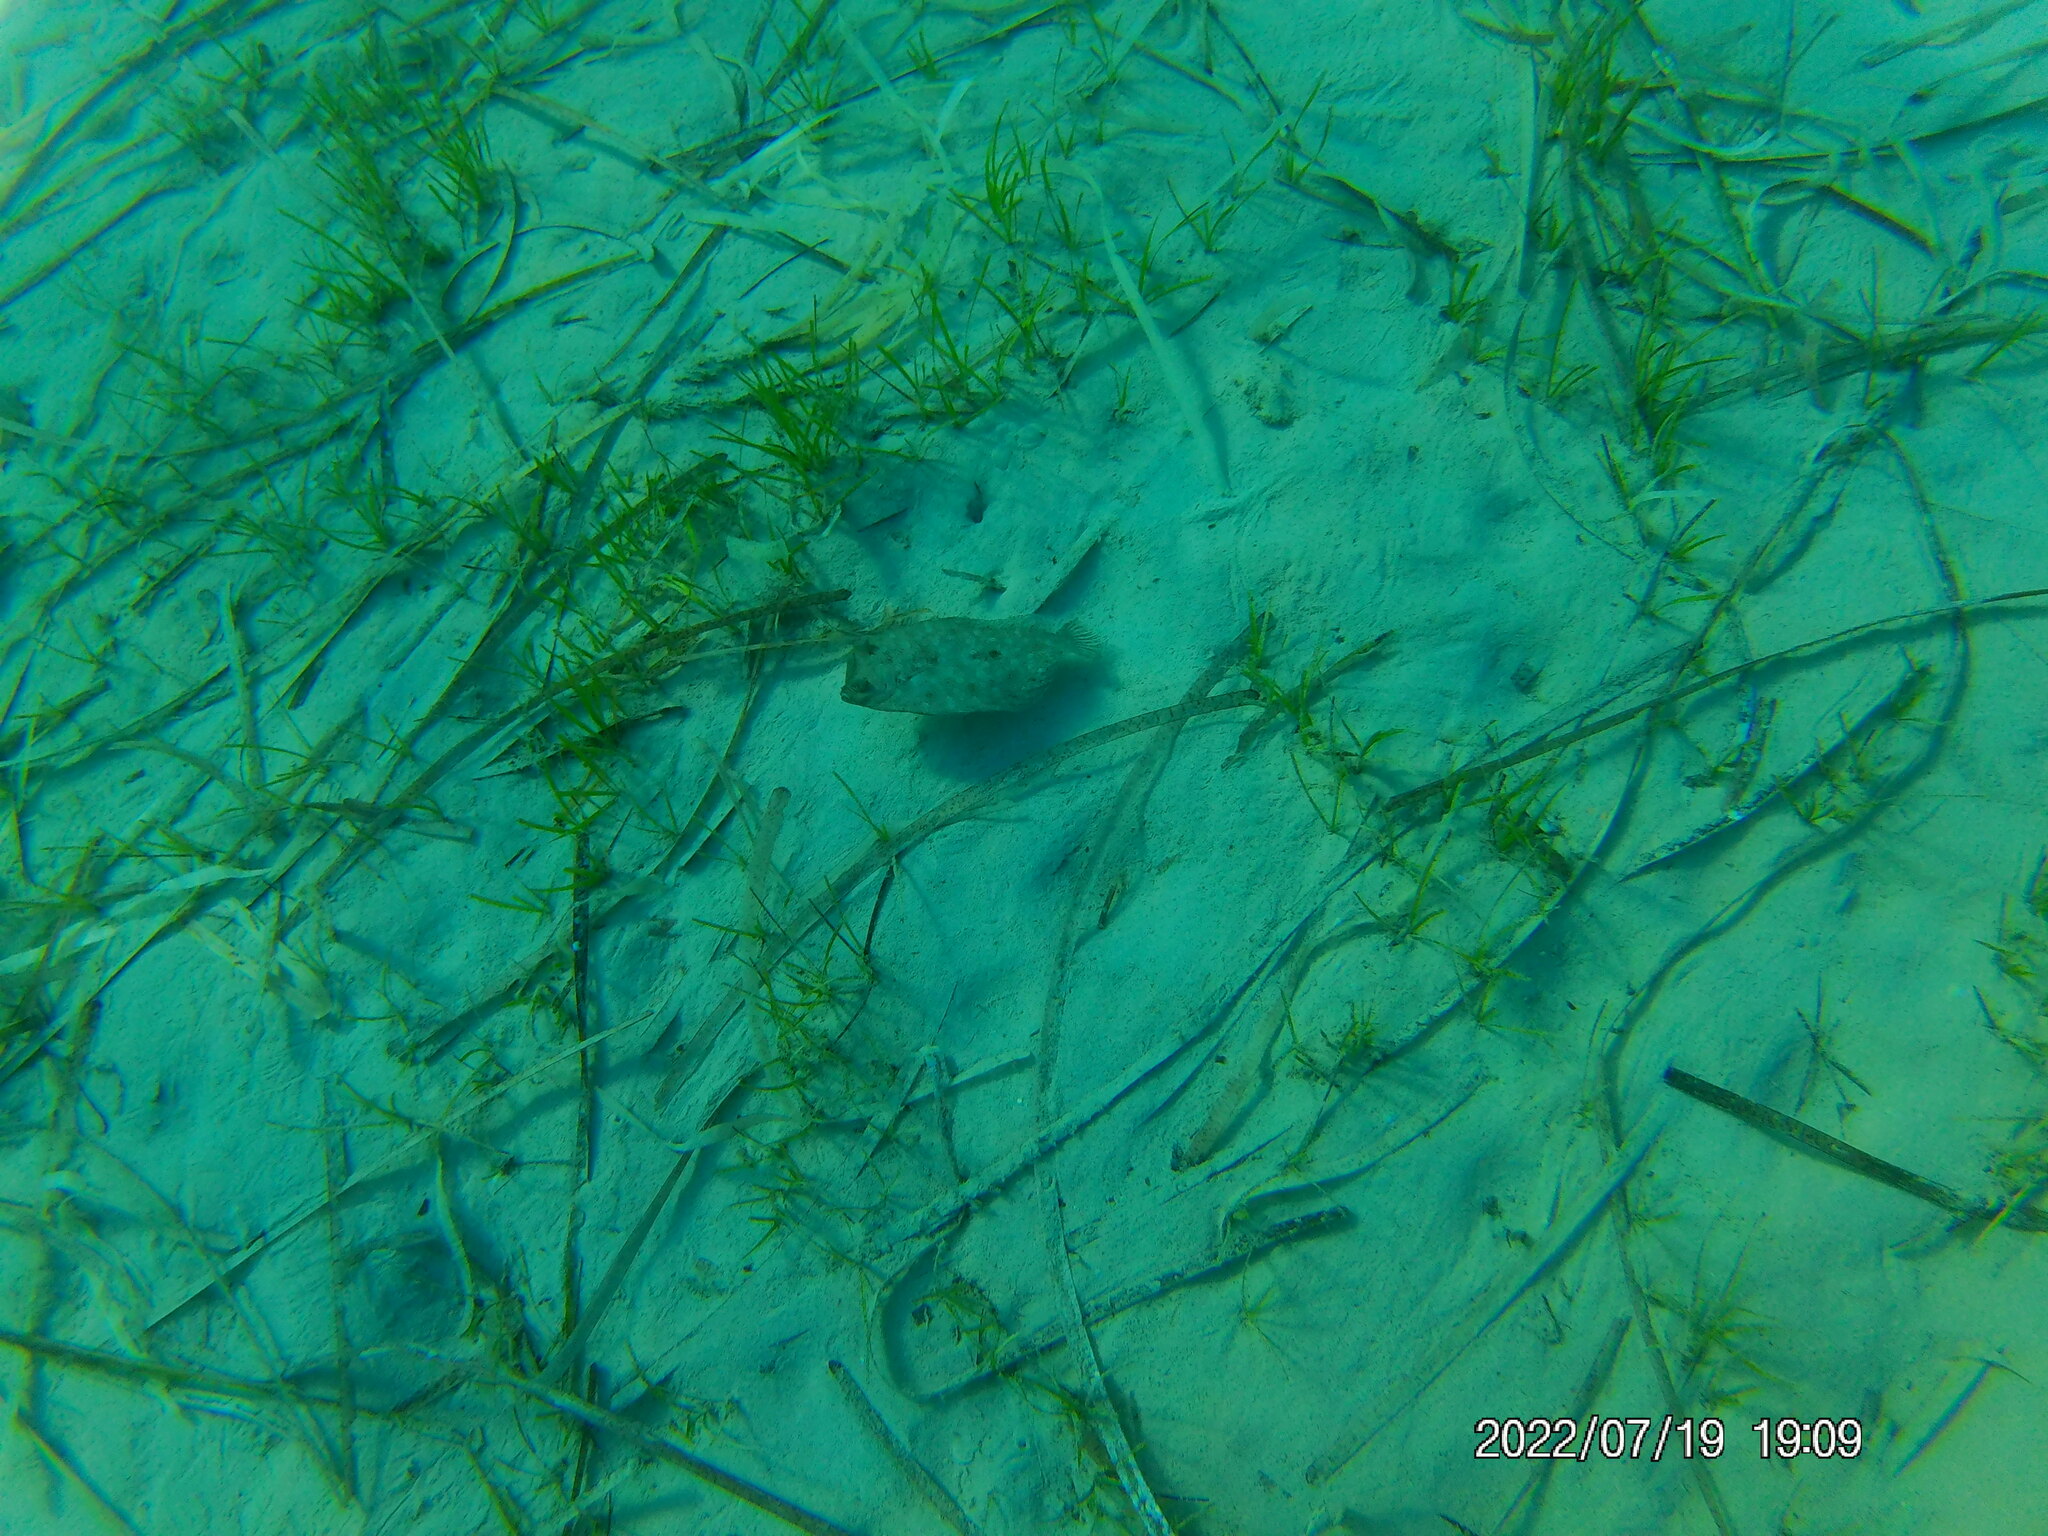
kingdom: Animalia
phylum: Chordata
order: Pleuronectiformes
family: Bothidae
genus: Bothus
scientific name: Bothus podas
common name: Wide-eyed flounder
